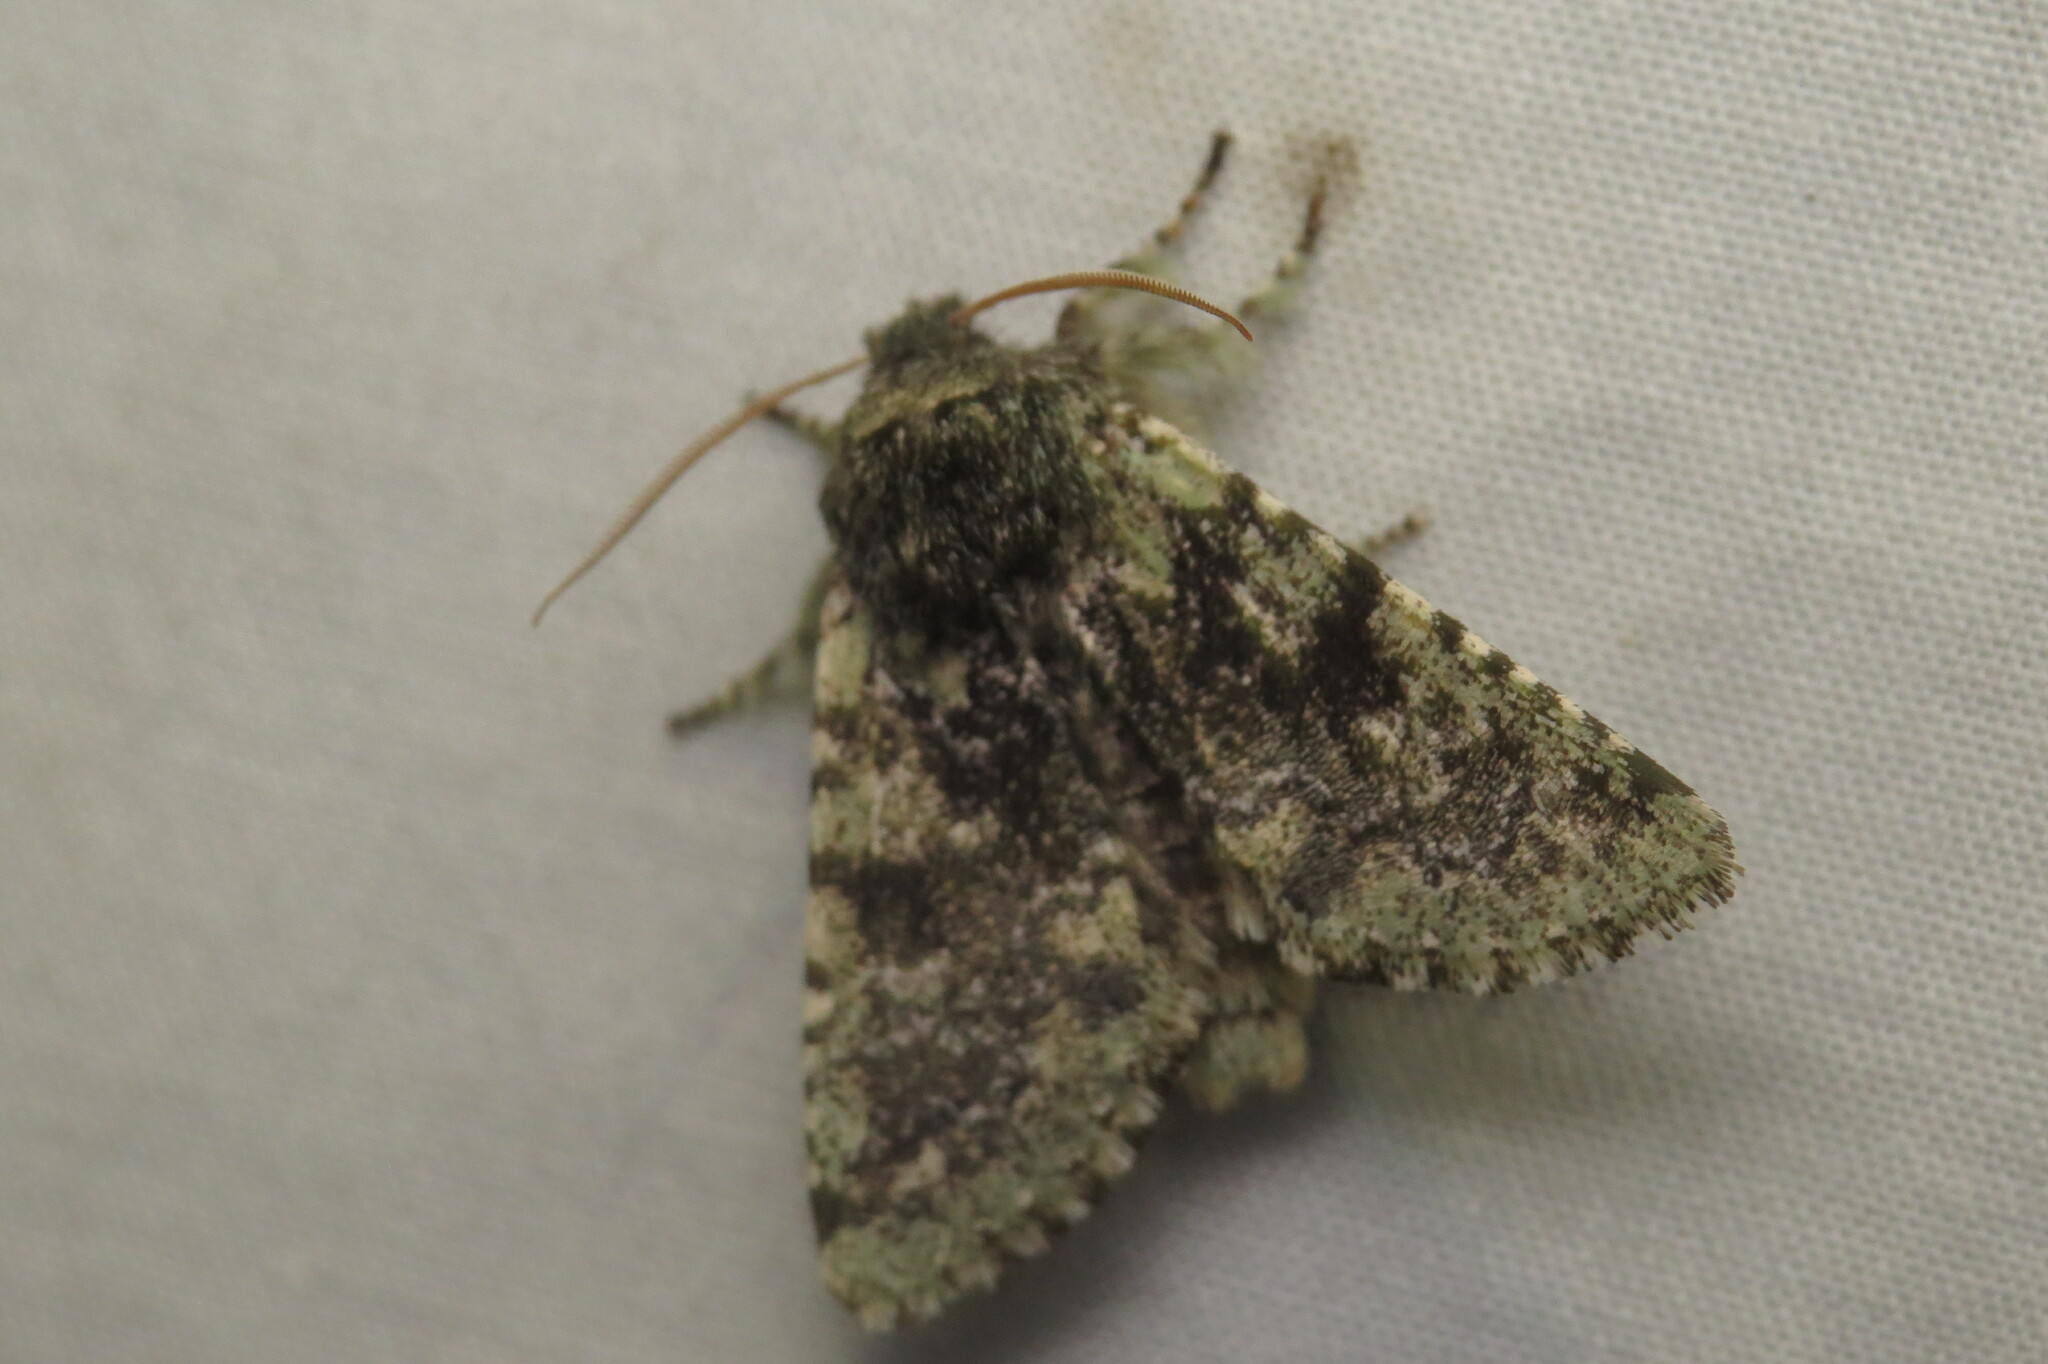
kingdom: Animalia
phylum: Arthropoda
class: Insecta
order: Lepidoptera
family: Noctuidae
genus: Feralia
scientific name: Feralia major
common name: Major sallow
